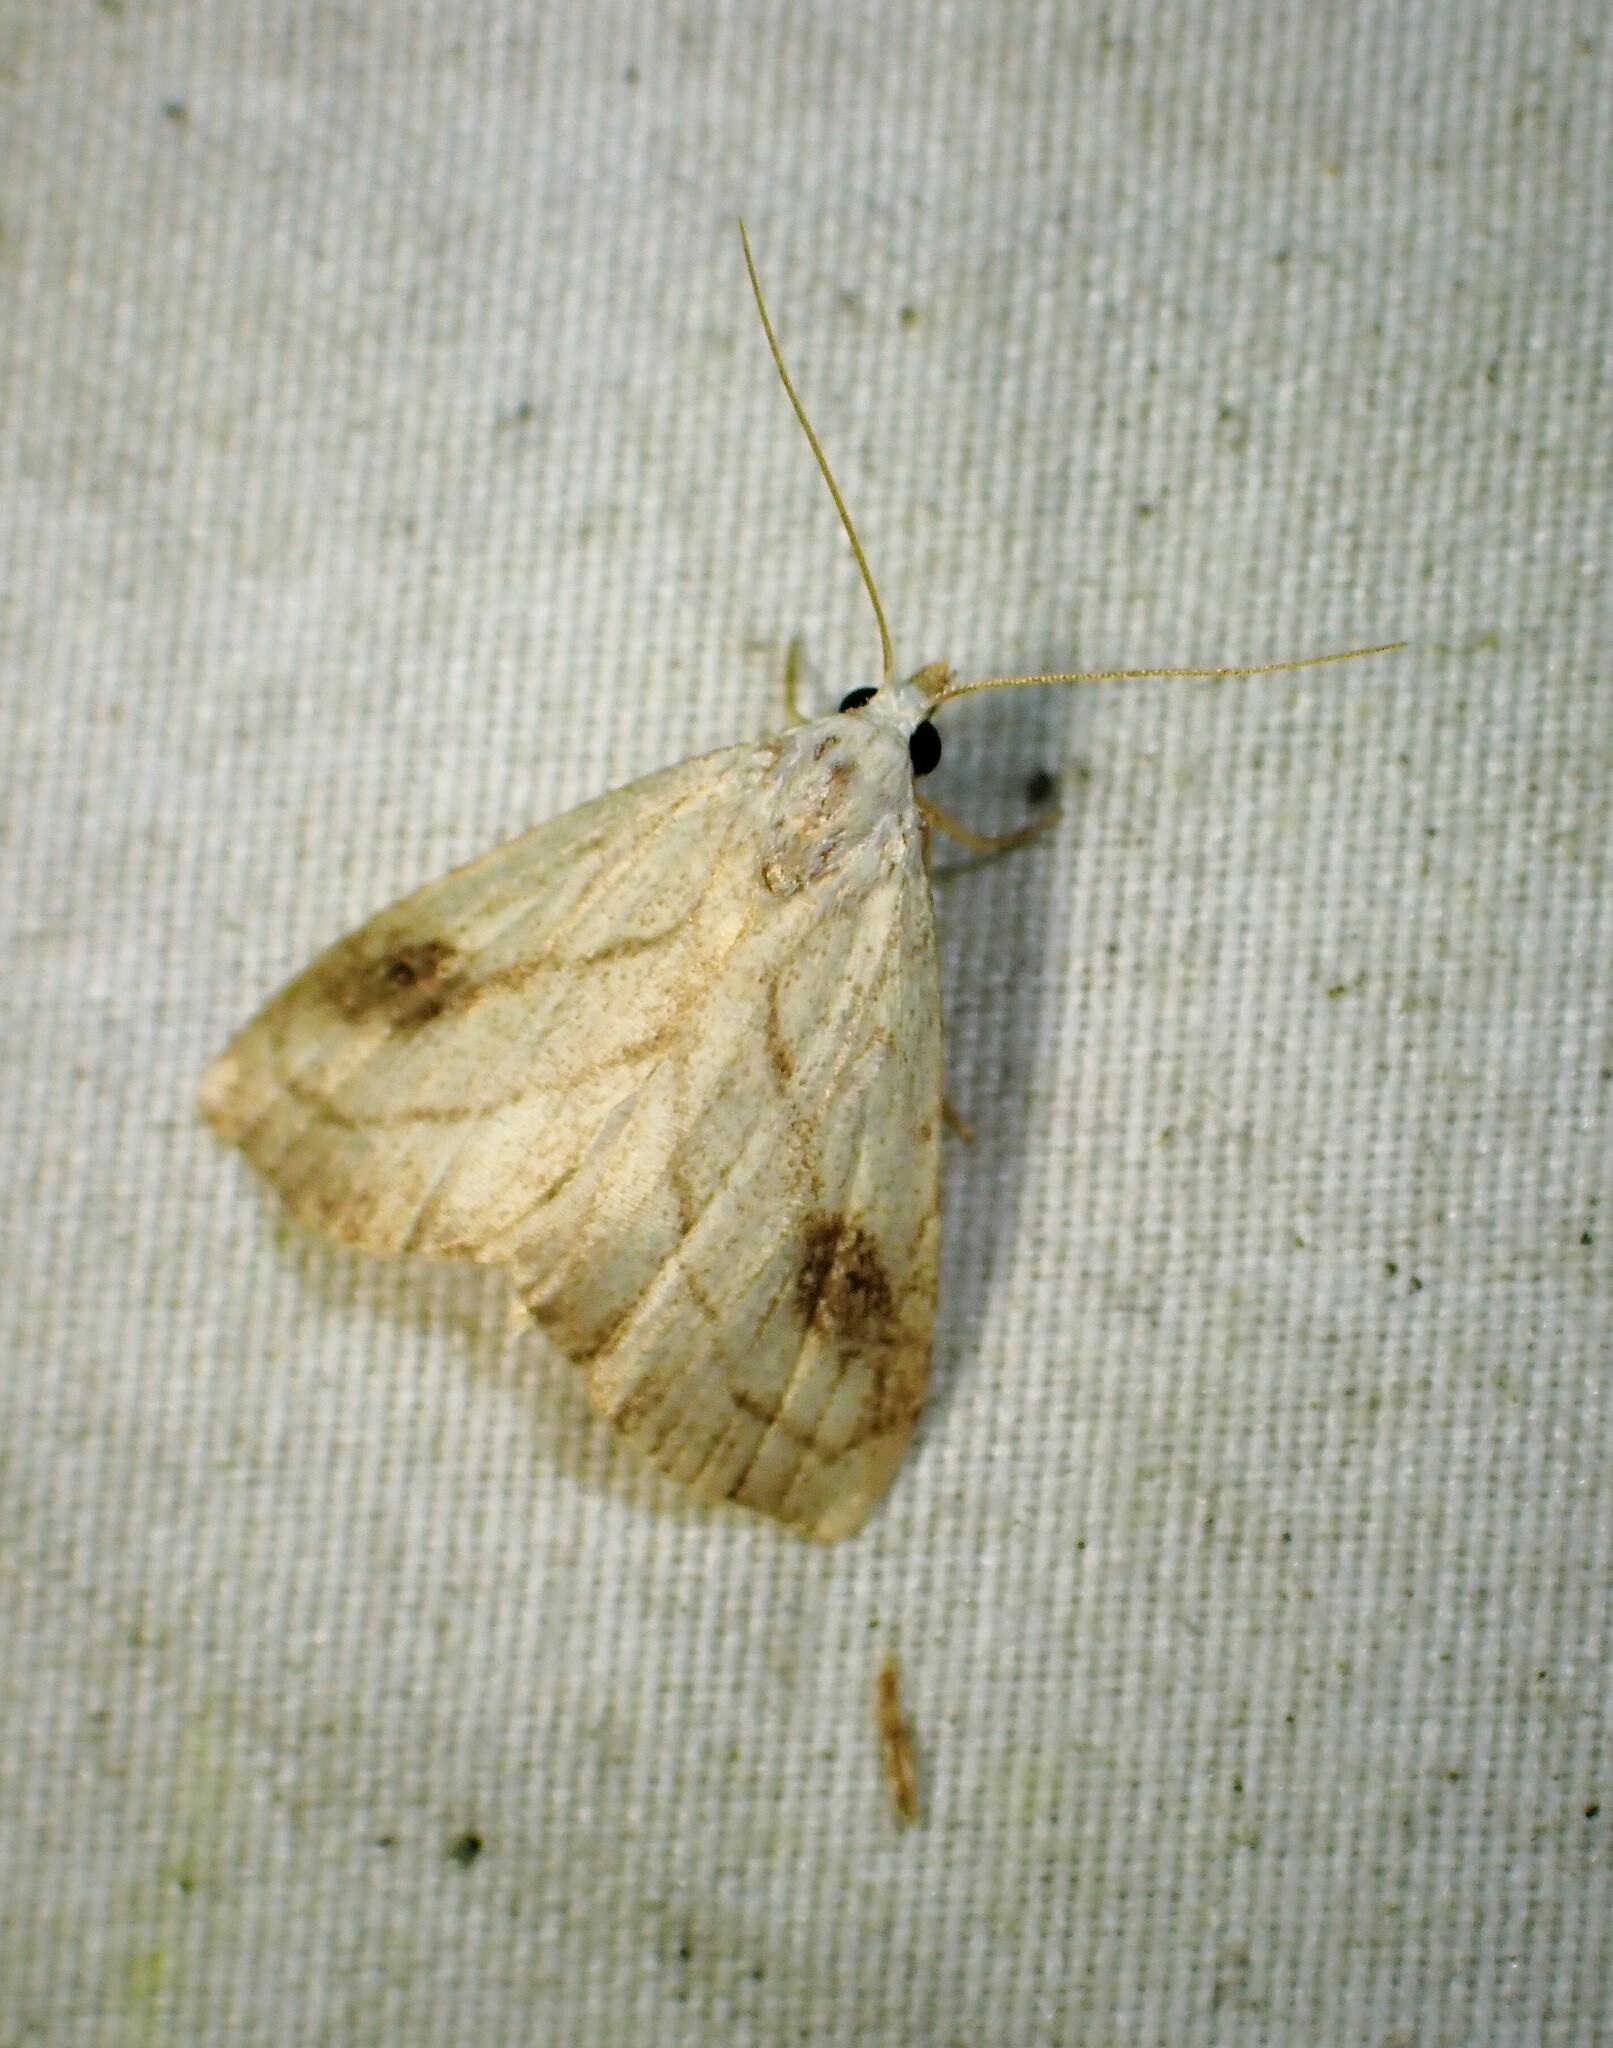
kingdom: Animalia
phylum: Arthropoda
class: Insecta
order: Lepidoptera
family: Erebidae
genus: Rivula
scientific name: Rivula propinqualis
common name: Spotted grass moth
